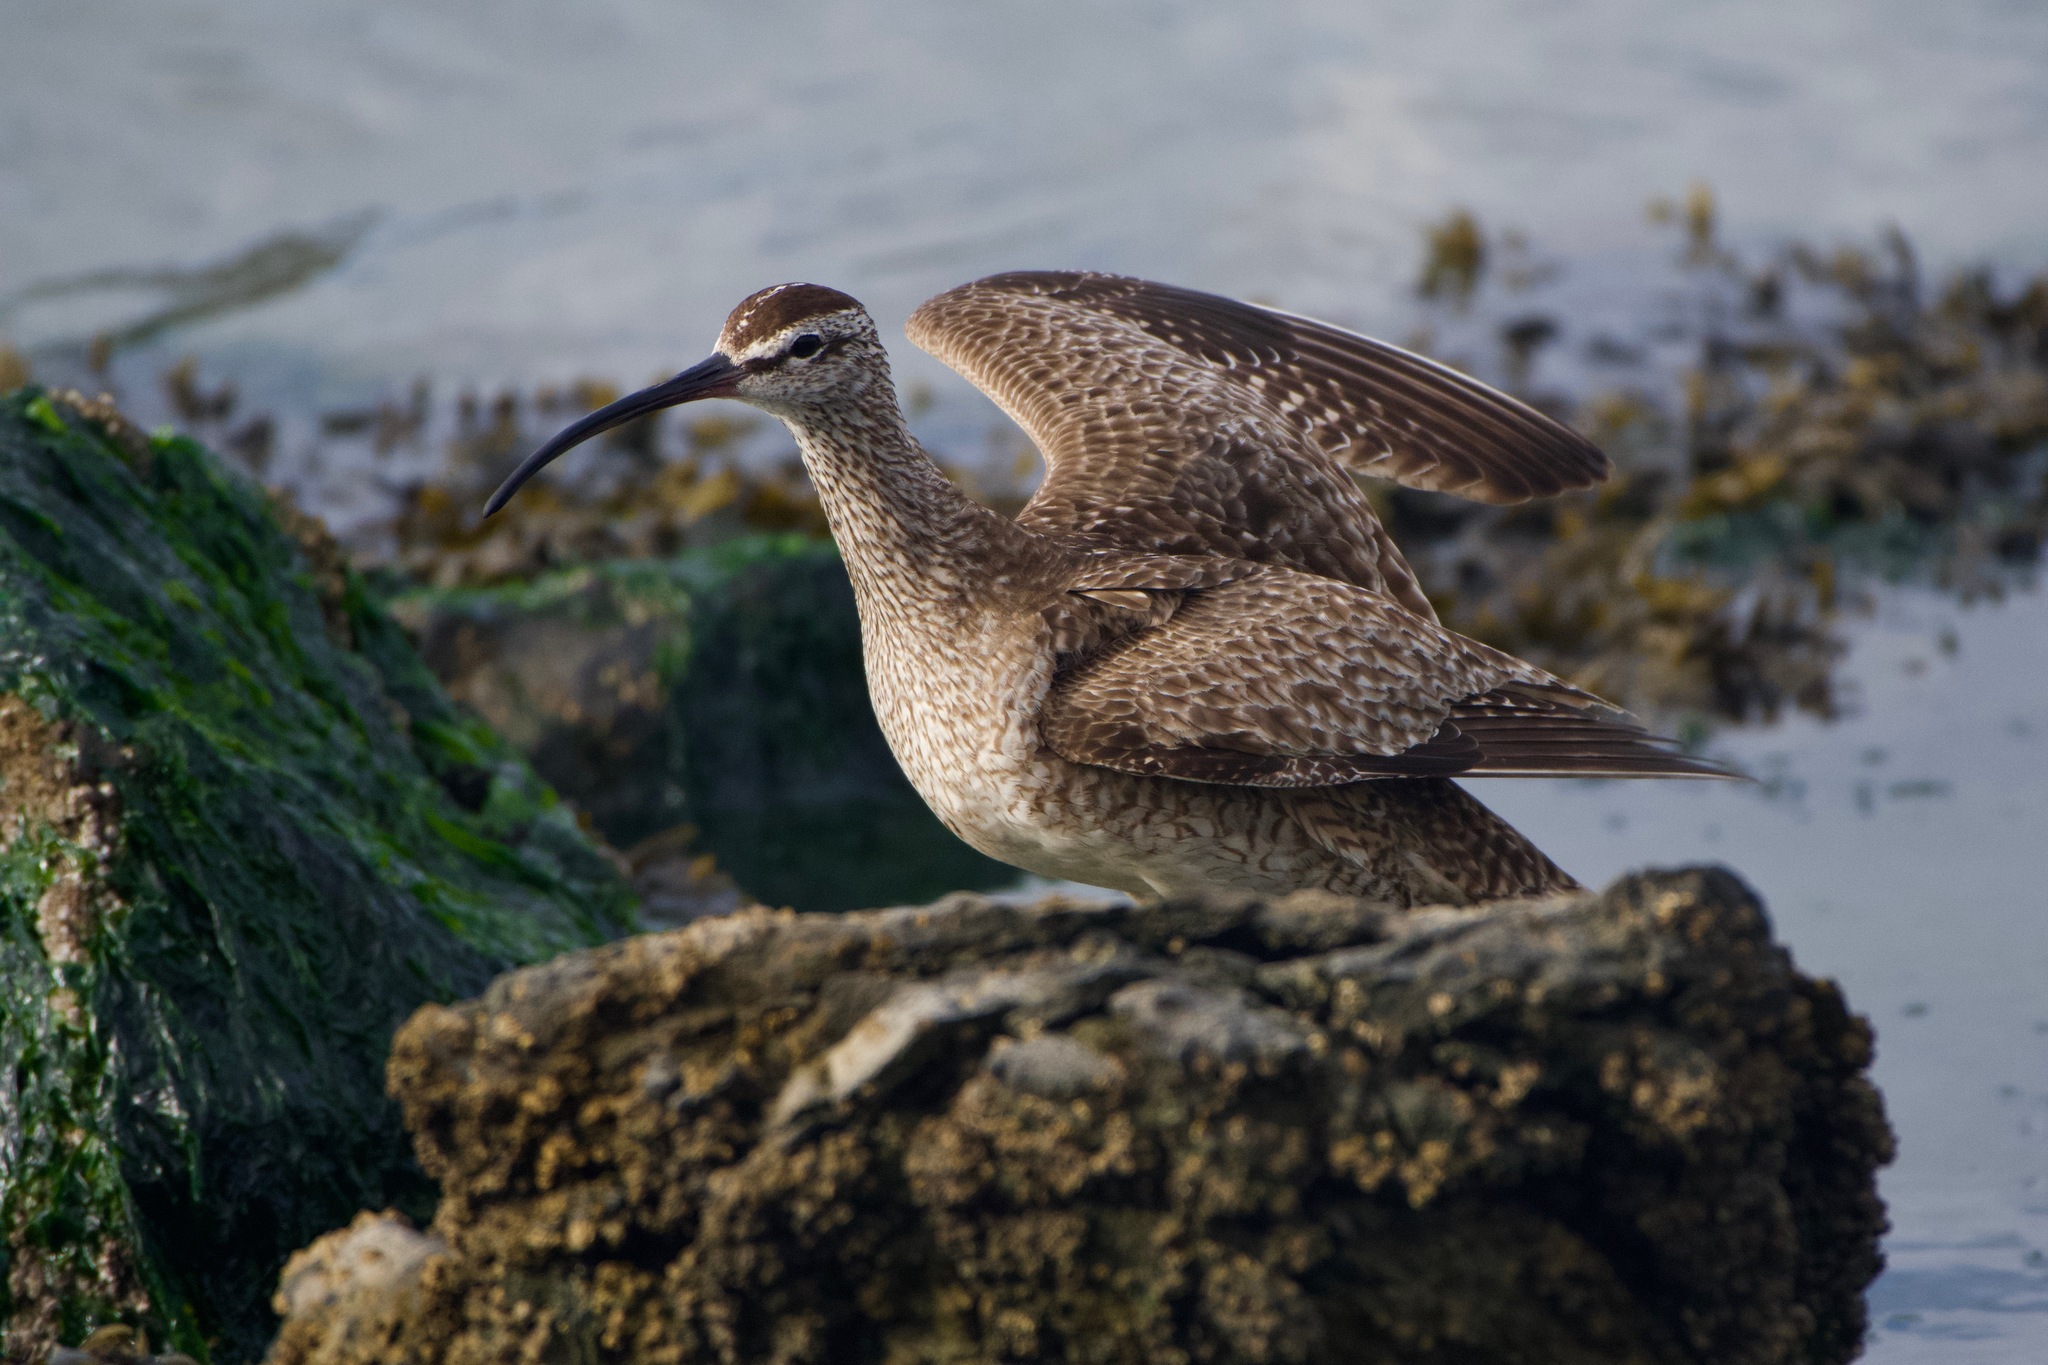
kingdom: Animalia
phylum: Chordata
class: Aves
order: Charadriiformes
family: Scolopacidae
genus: Numenius
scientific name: Numenius phaeopus
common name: Whimbrel
